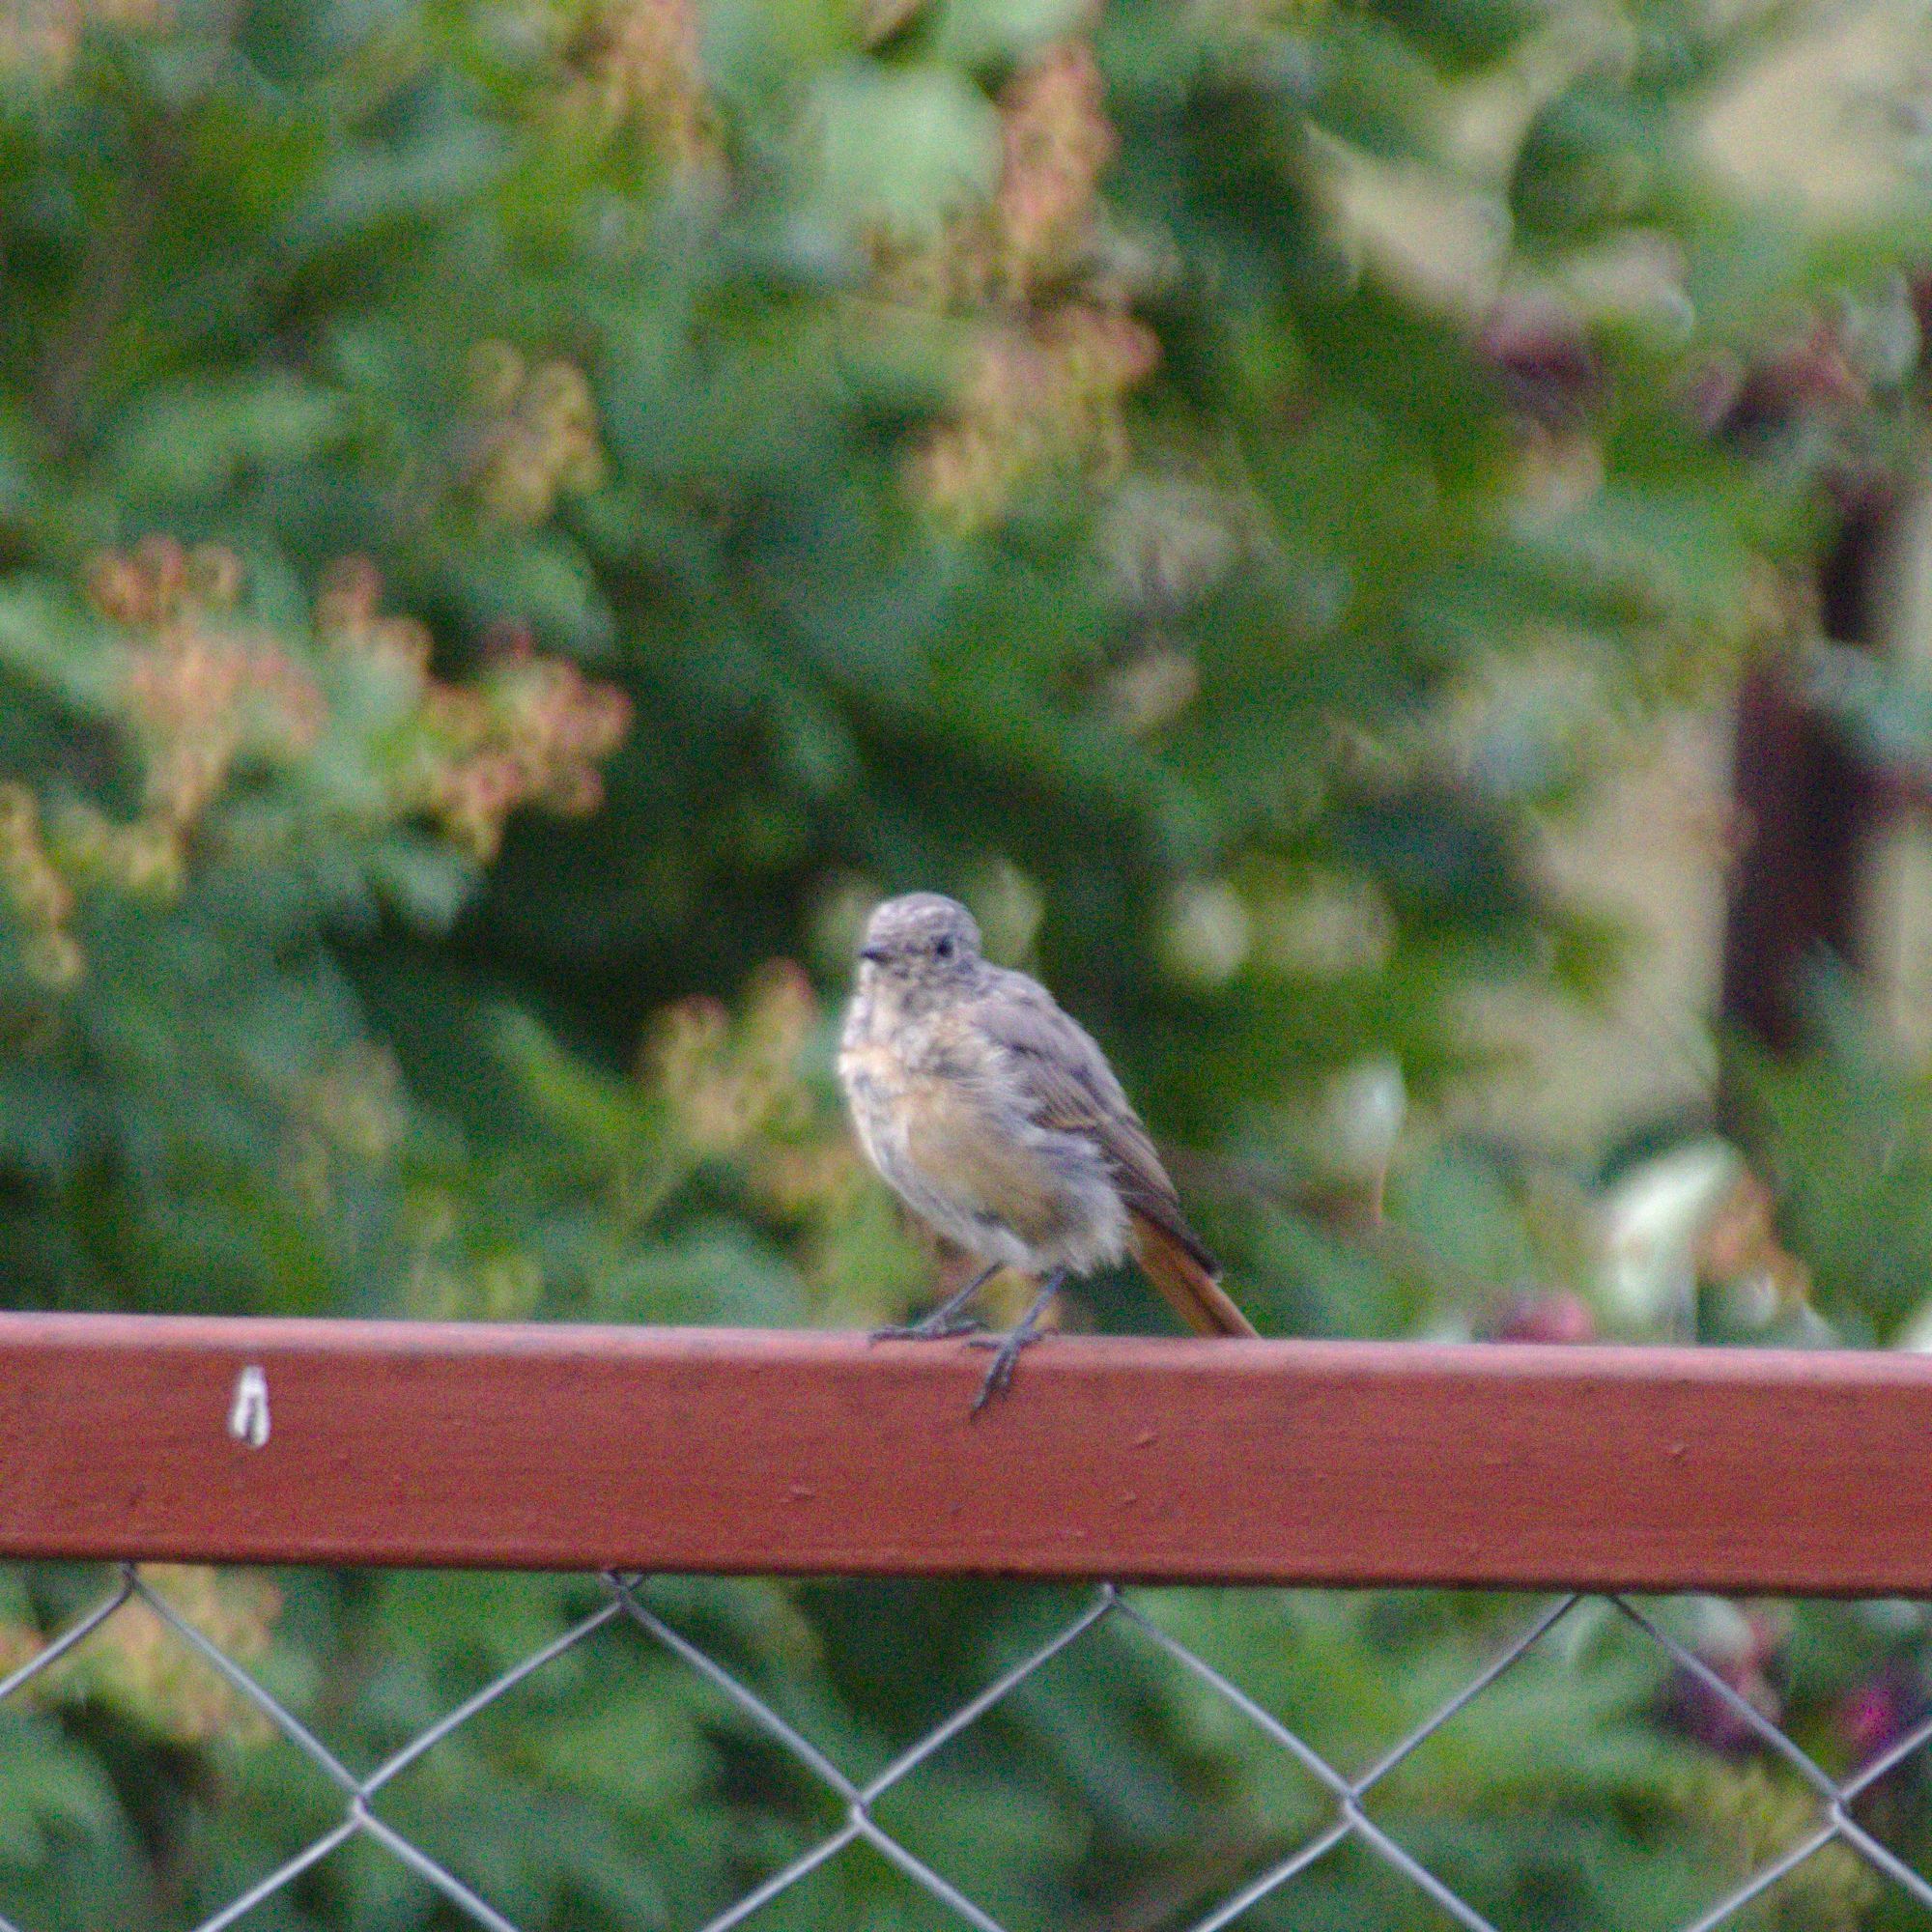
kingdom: Animalia
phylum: Chordata
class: Aves
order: Passeriformes
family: Muscicapidae
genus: Phoenicurus
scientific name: Phoenicurus phoenicurus
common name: Common redstart
